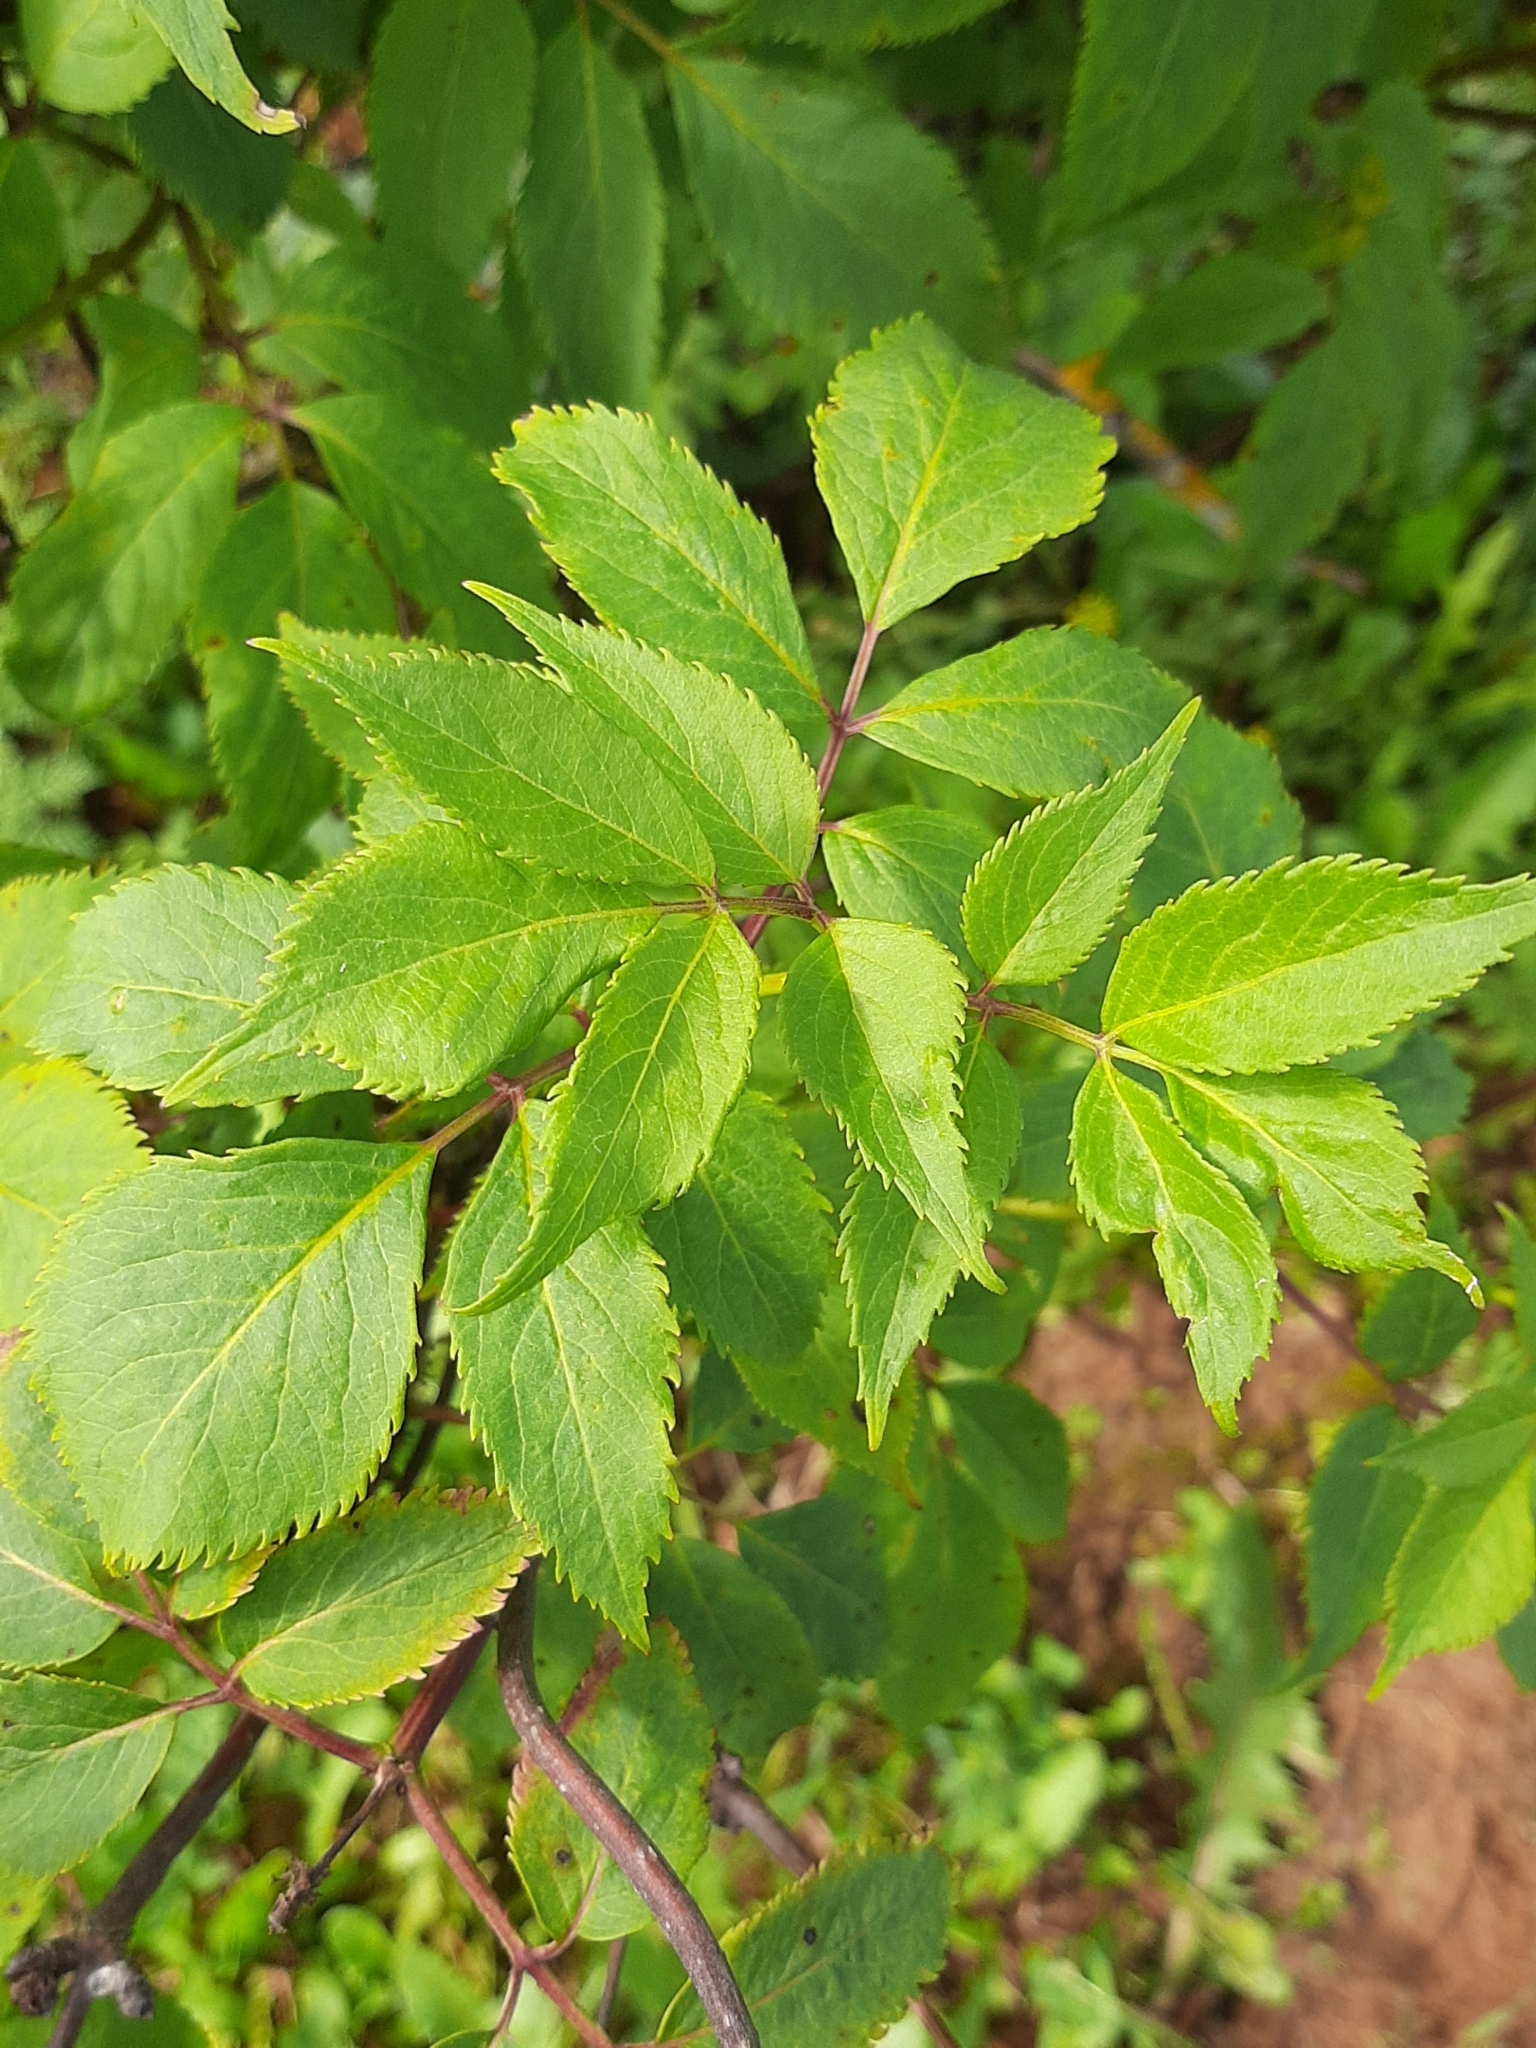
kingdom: Plantae
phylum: Tracheophyta
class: Magnoliopsida
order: Dipsacales
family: Viburnaceae
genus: Sambucus
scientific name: Sambucus racemosa
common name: Red-berried elder
